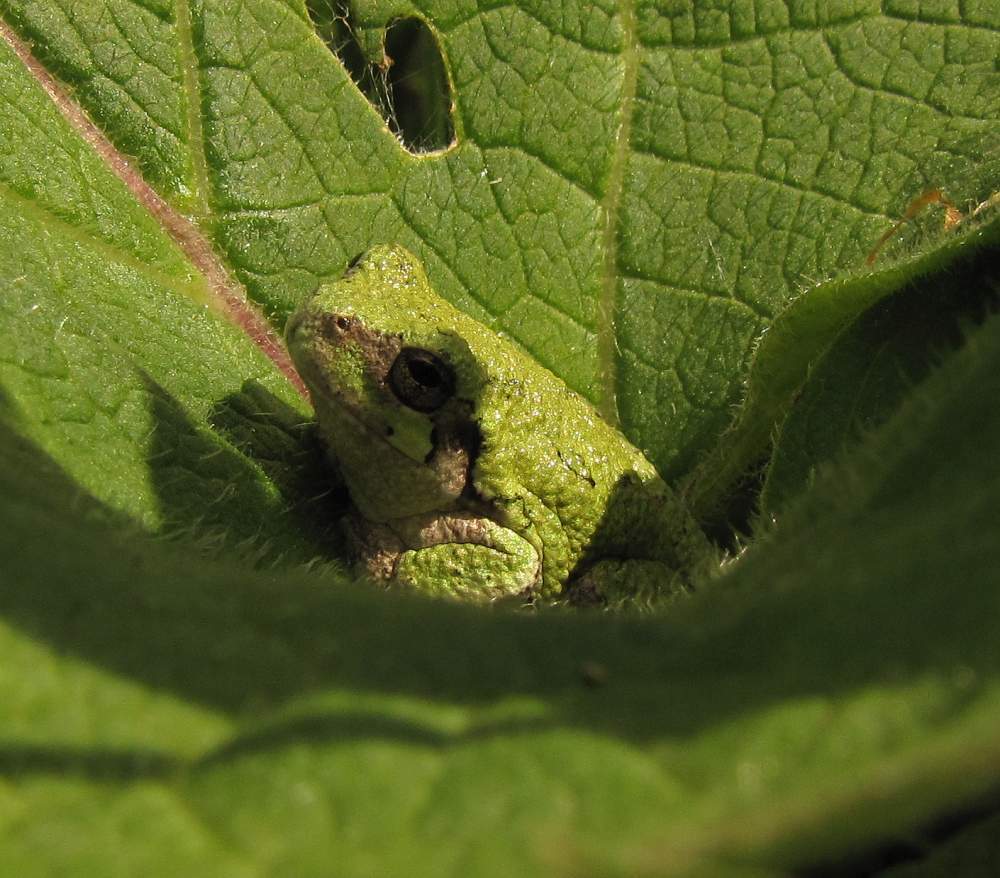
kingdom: Animalia
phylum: Chordata
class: Amphibia
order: Anura
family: Hylidae
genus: Dryophytes
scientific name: Dryophytes versicolor
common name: Gray treefrog
